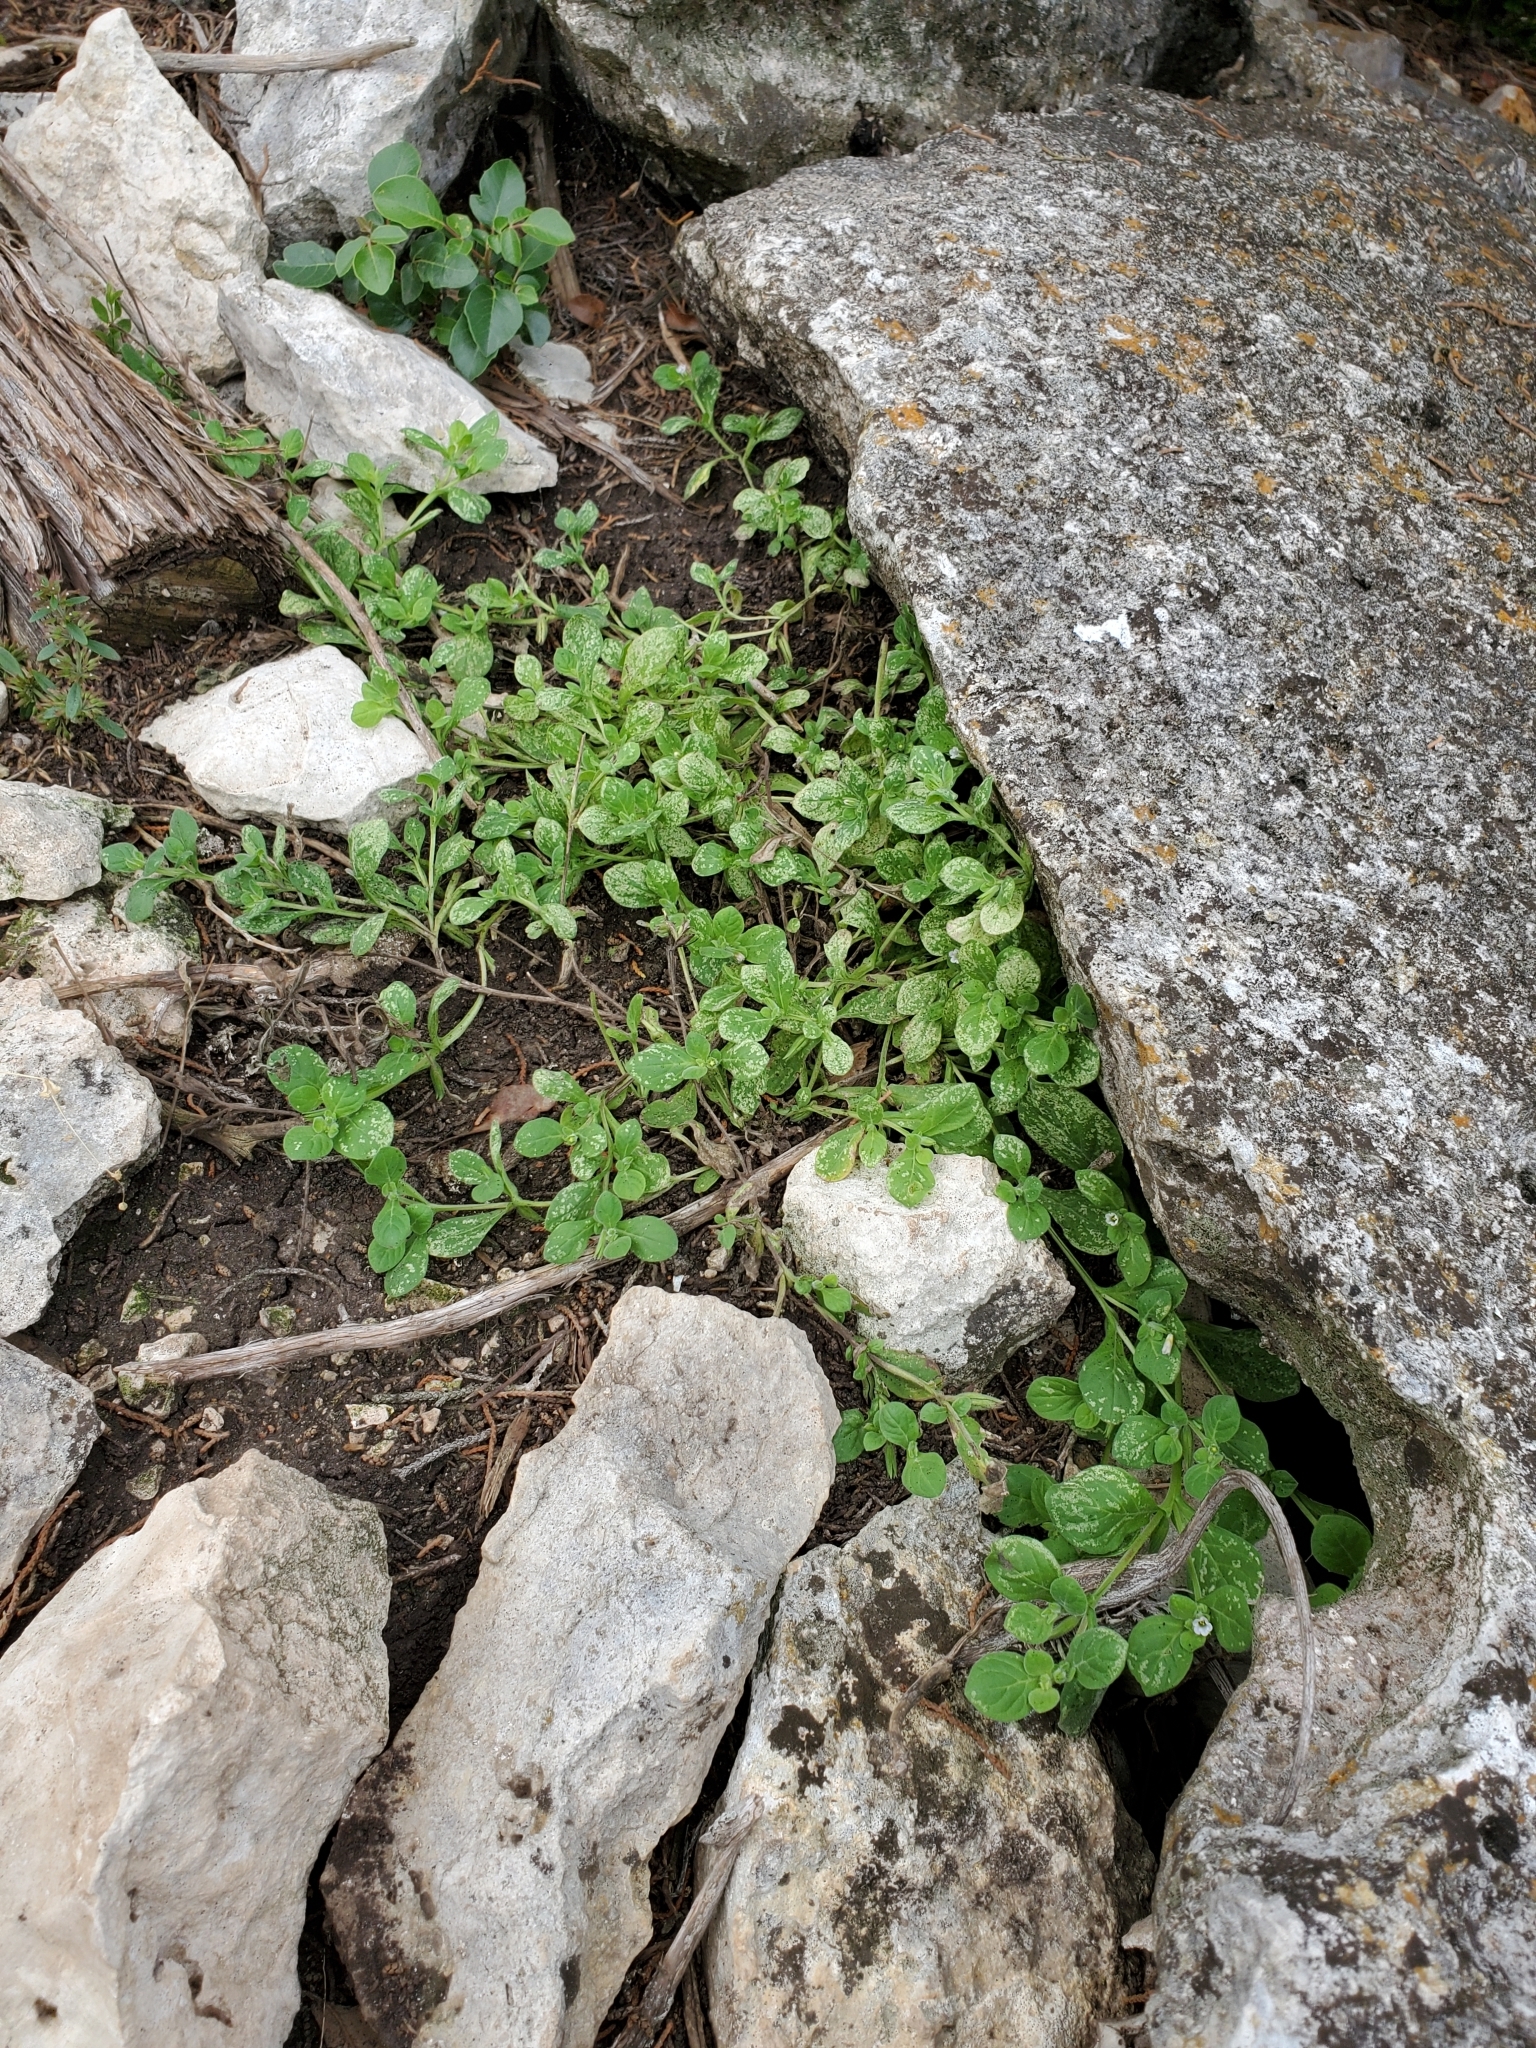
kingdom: Plantae
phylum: Tracheophyta
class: Magnoliopsida
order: Boraginales
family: Namaceae
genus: Nama
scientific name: Nama jamaicensis
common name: Jamaicanweed
